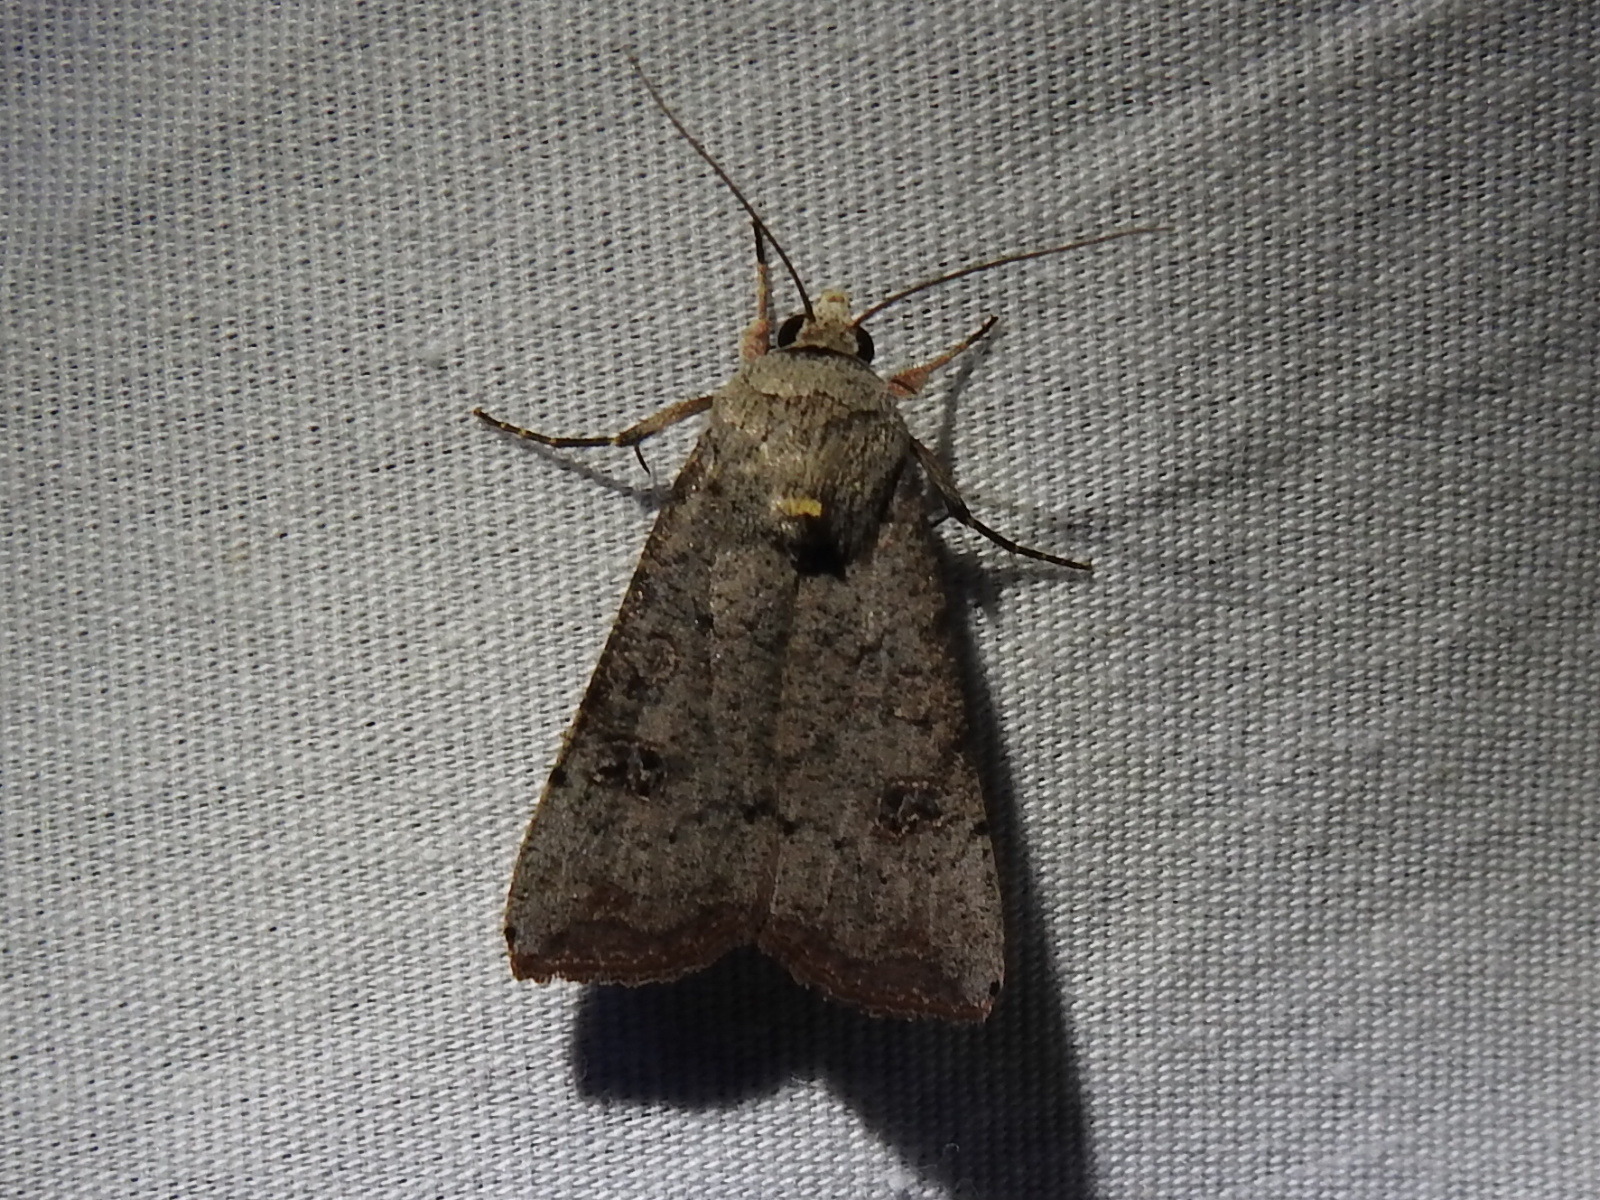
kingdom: Animalia
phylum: Arthropoda
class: Insecta
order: Lepidoptera
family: Noctuidae
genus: Anicla
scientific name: Anicla infecta
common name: Green cutworm
